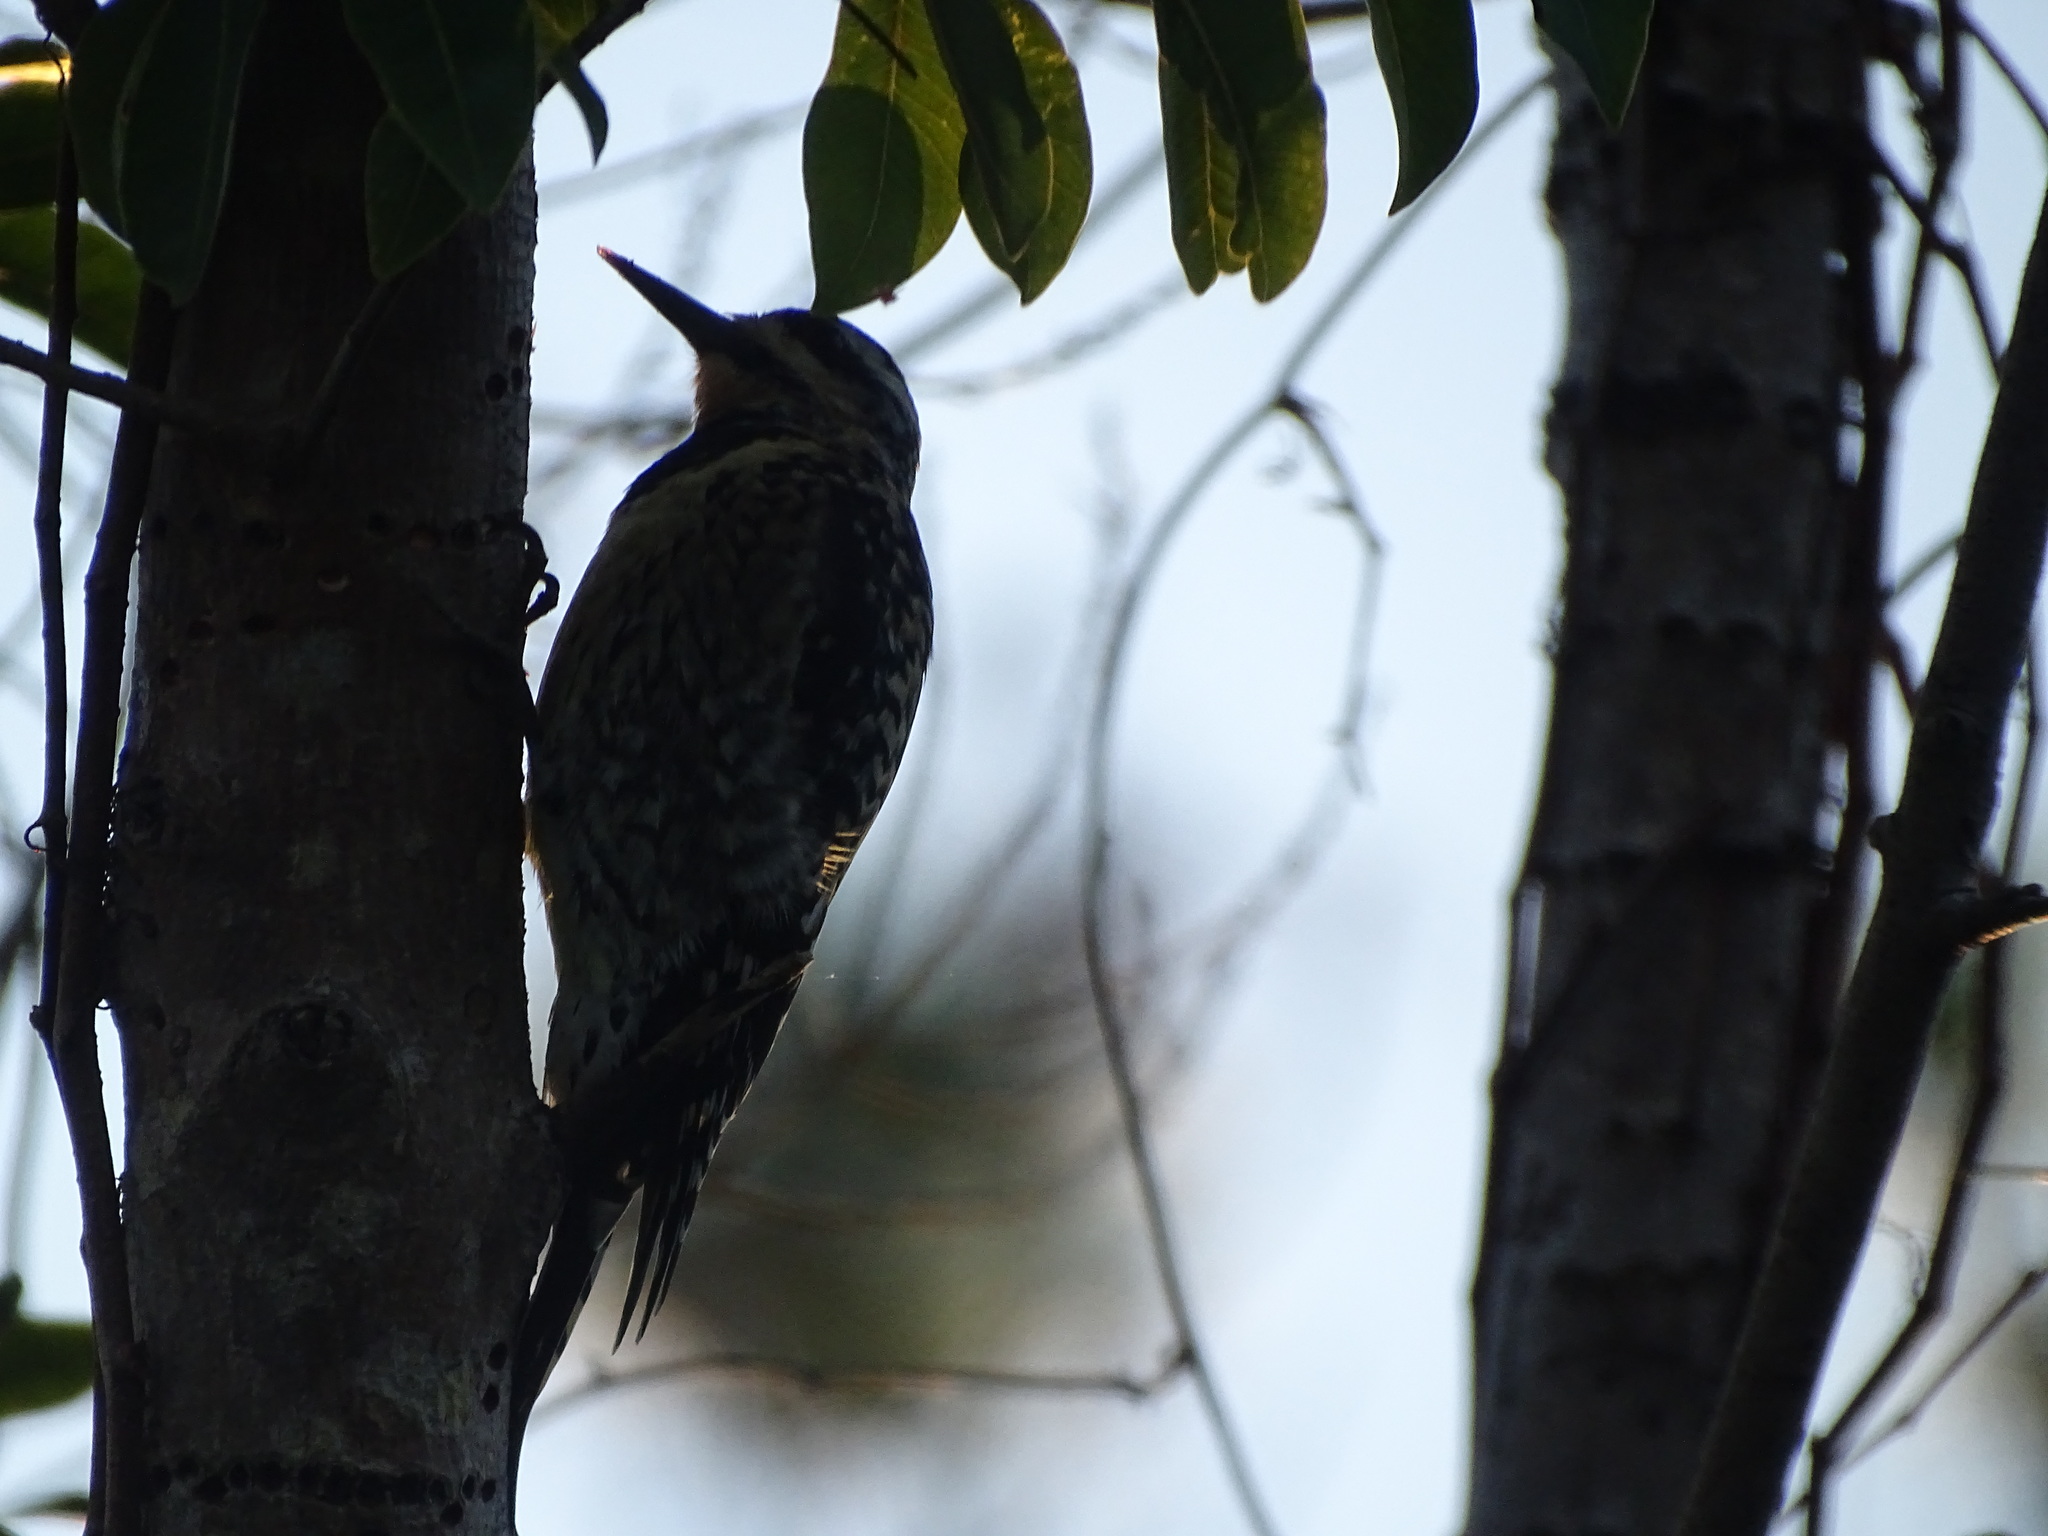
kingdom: Animalia
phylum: Chordata
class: Aves
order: Piciformes
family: Picidae
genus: Sphyrapicus
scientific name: Sphyrapicus varius
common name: Yellow-bellied sapsucker
